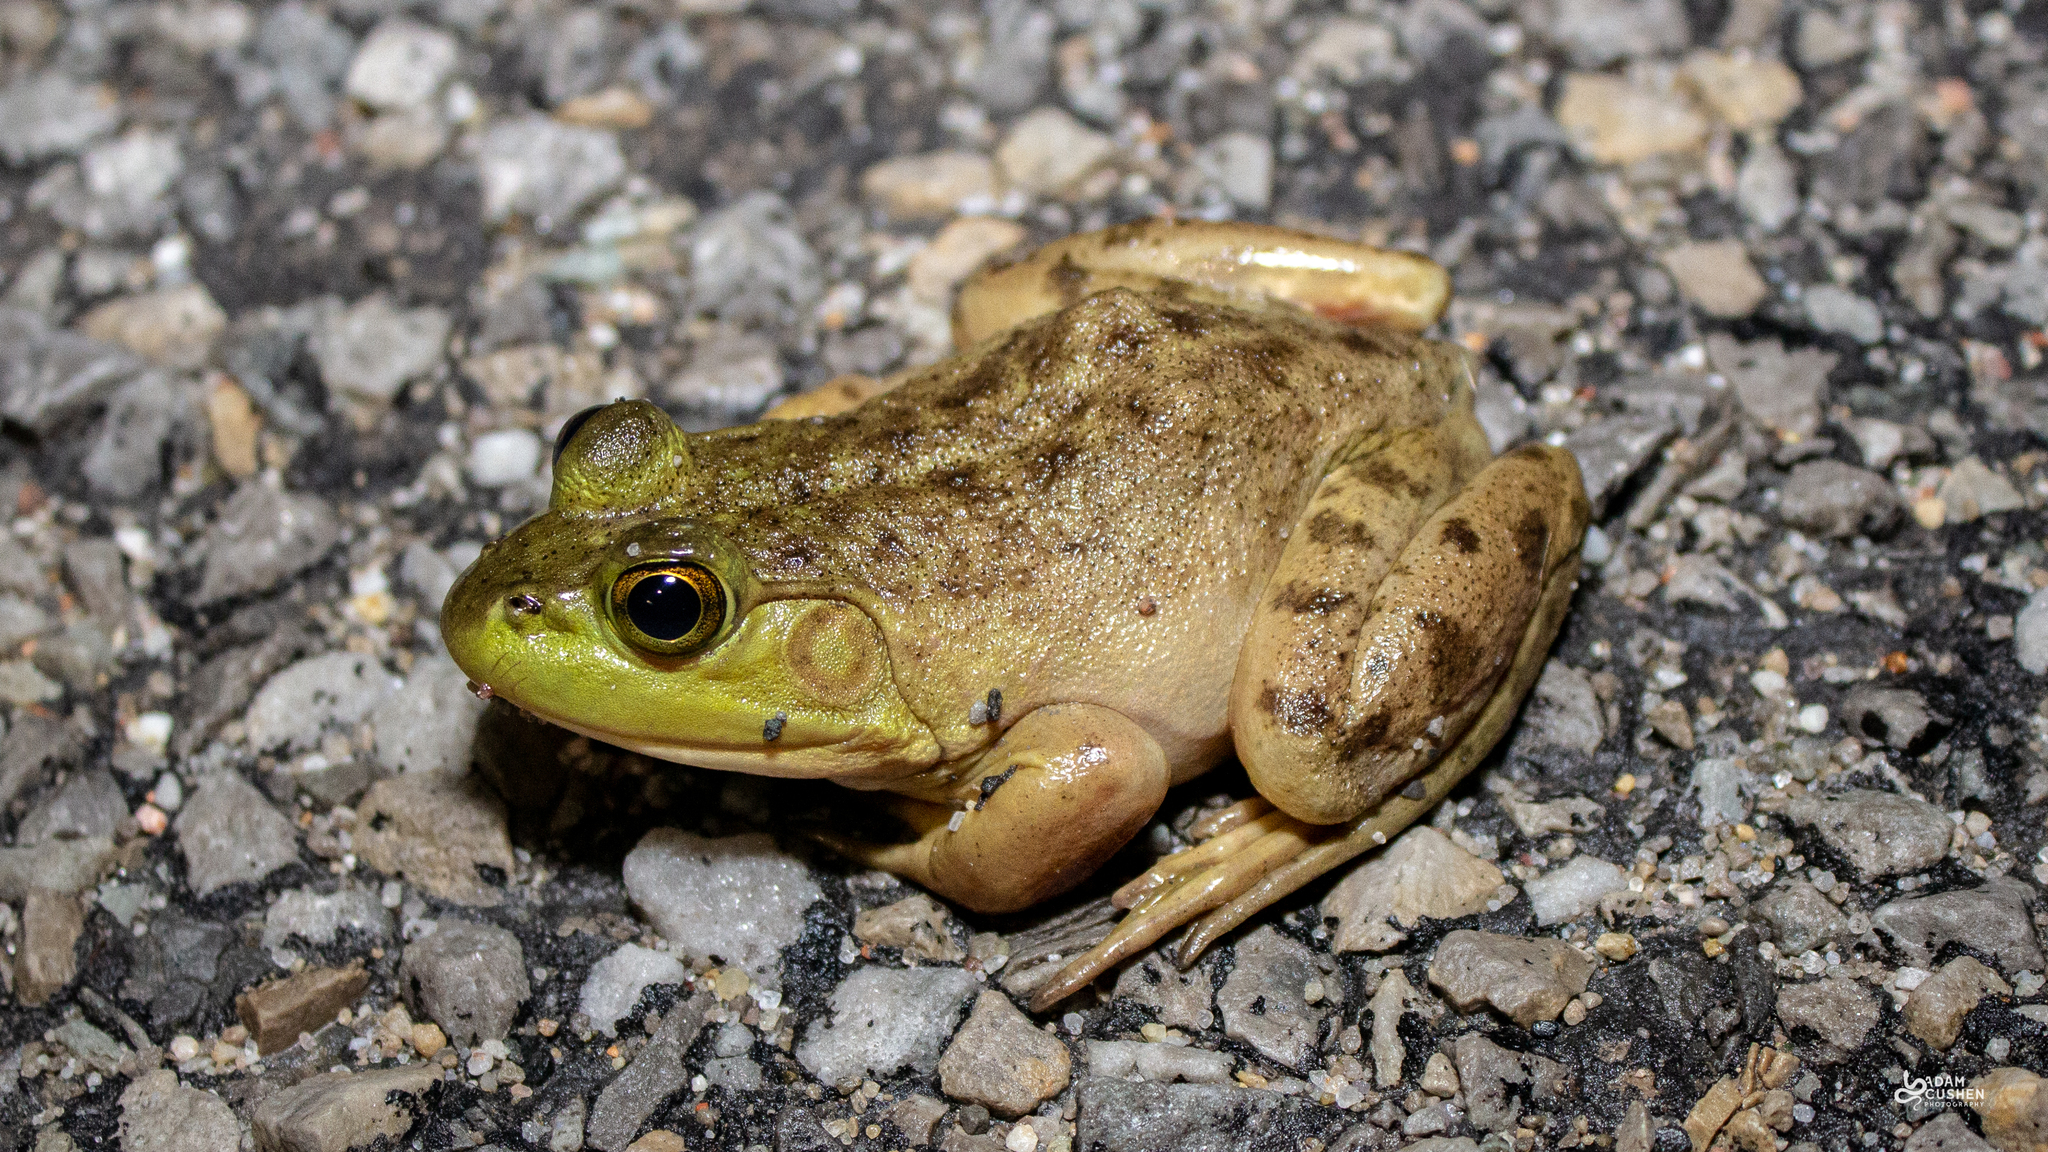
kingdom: Animalia
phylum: Chordata
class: Amphibia
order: Anura
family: Ranidae
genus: Lithobates
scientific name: Lithobates catesbeianus
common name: American bullfrog
